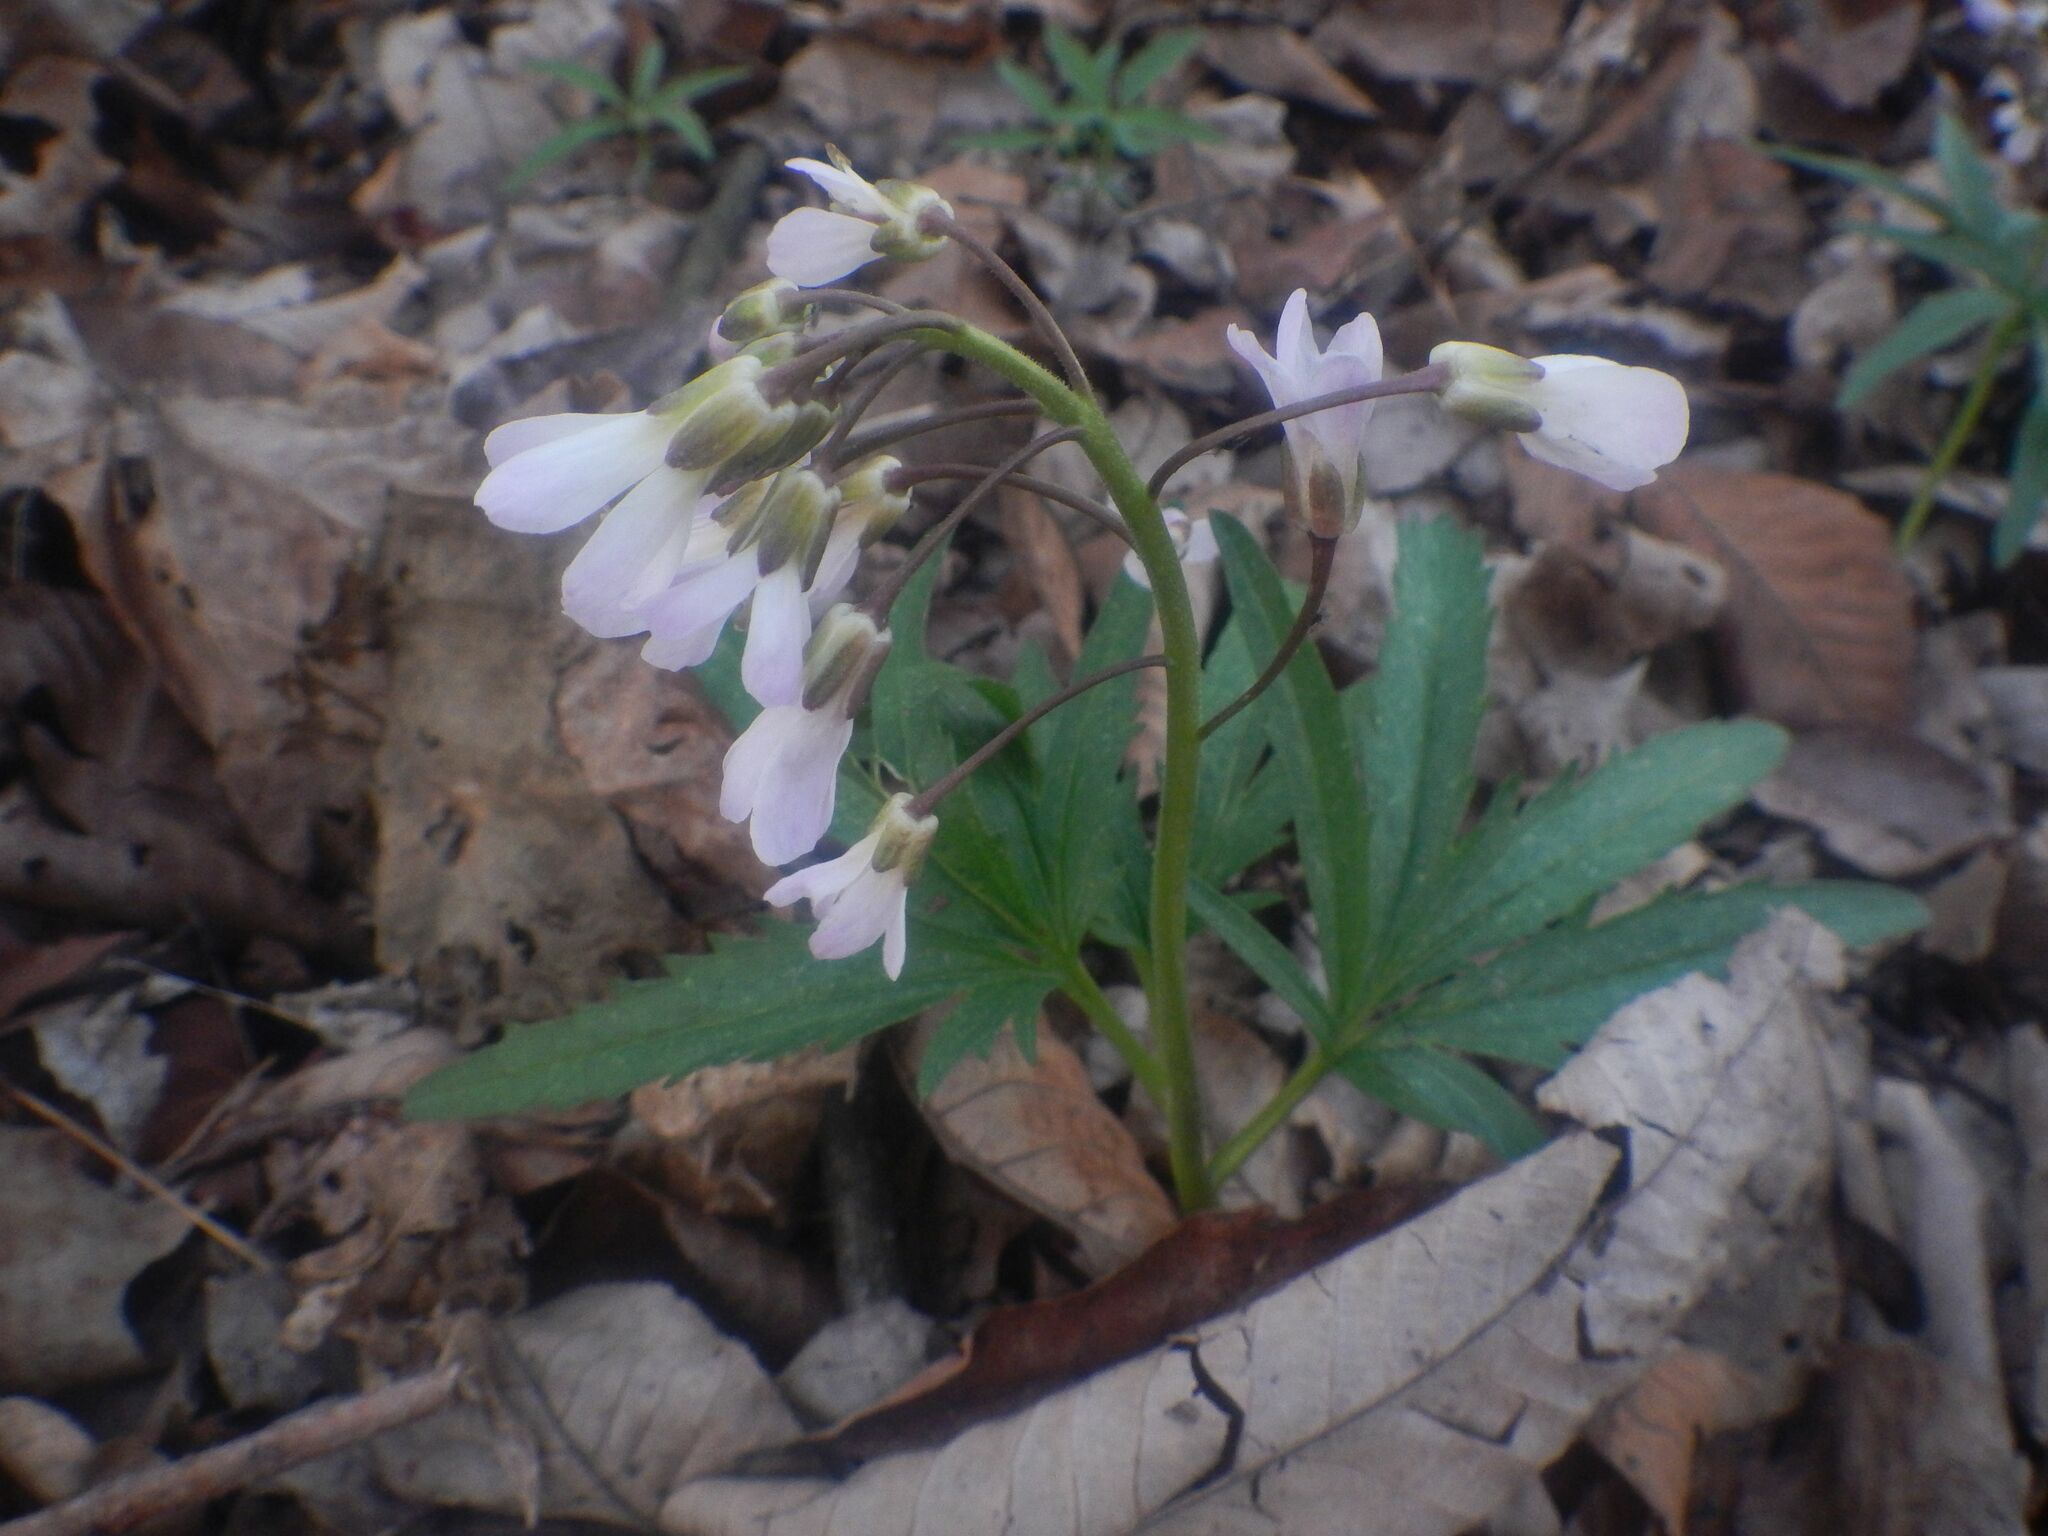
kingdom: Plantae
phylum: Tracheophyta
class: Magnoliopsida
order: Brassicales
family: Brassicaceae
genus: Cardamine
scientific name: Cardamine concatenata
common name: Cut-leaf toothcup
